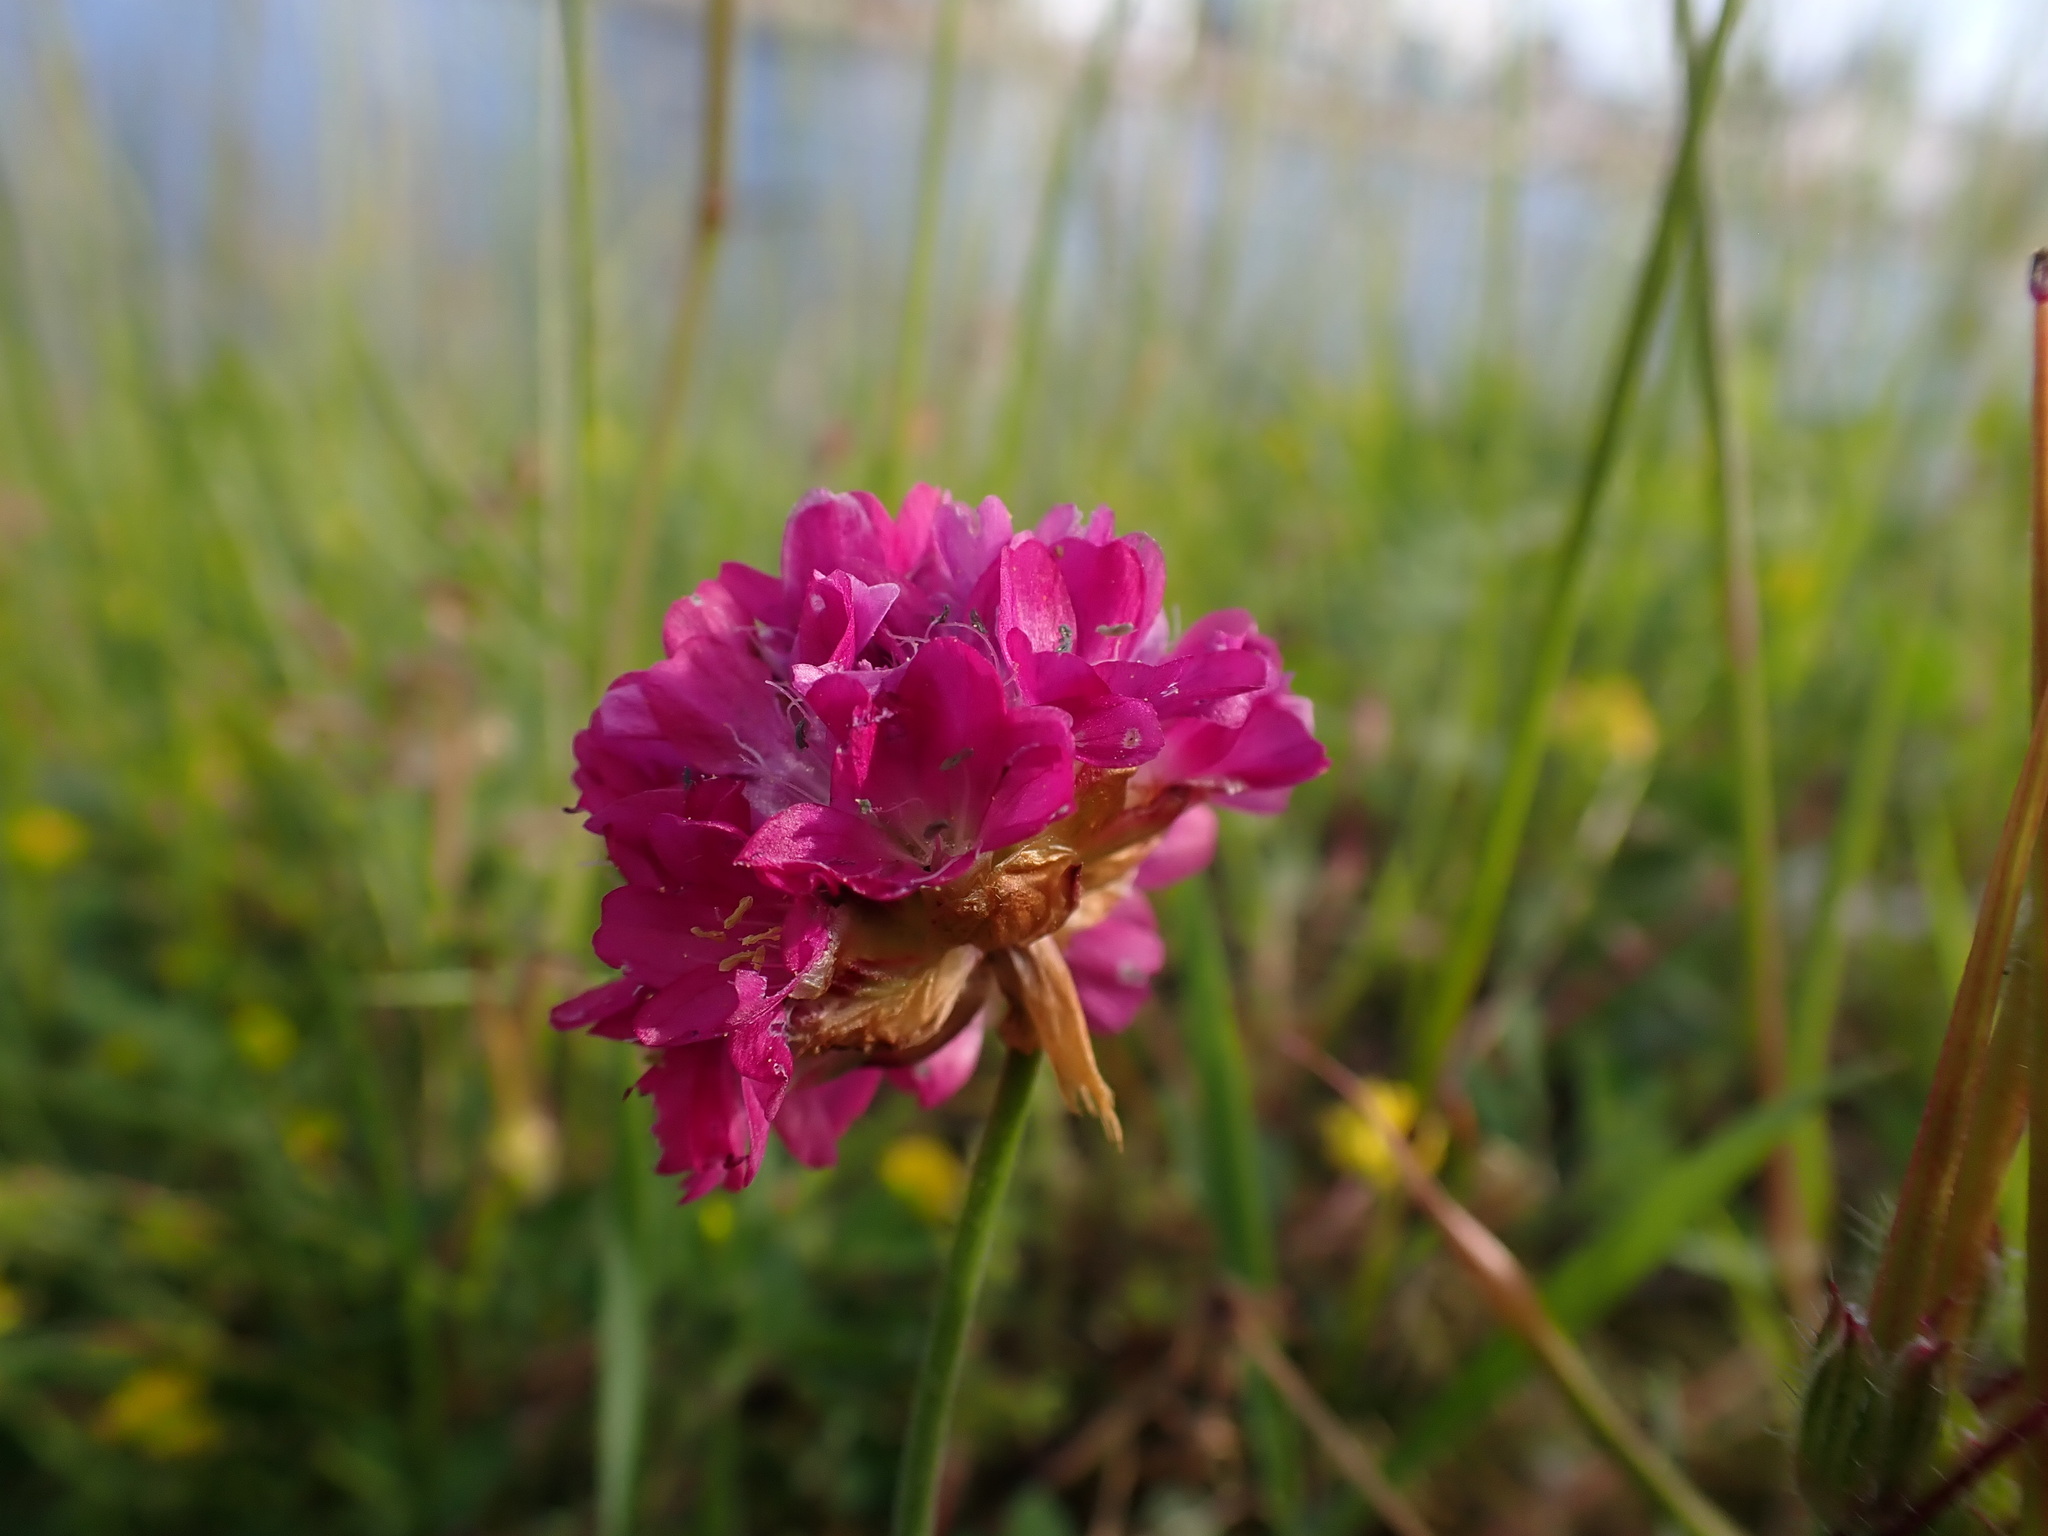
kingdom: Plantae
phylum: Tracheophyta
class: Magnoliopsida
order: Caryophyllales
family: Plumbaginaceae
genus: Armeria
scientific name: Armeria maritima
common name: Thrift
